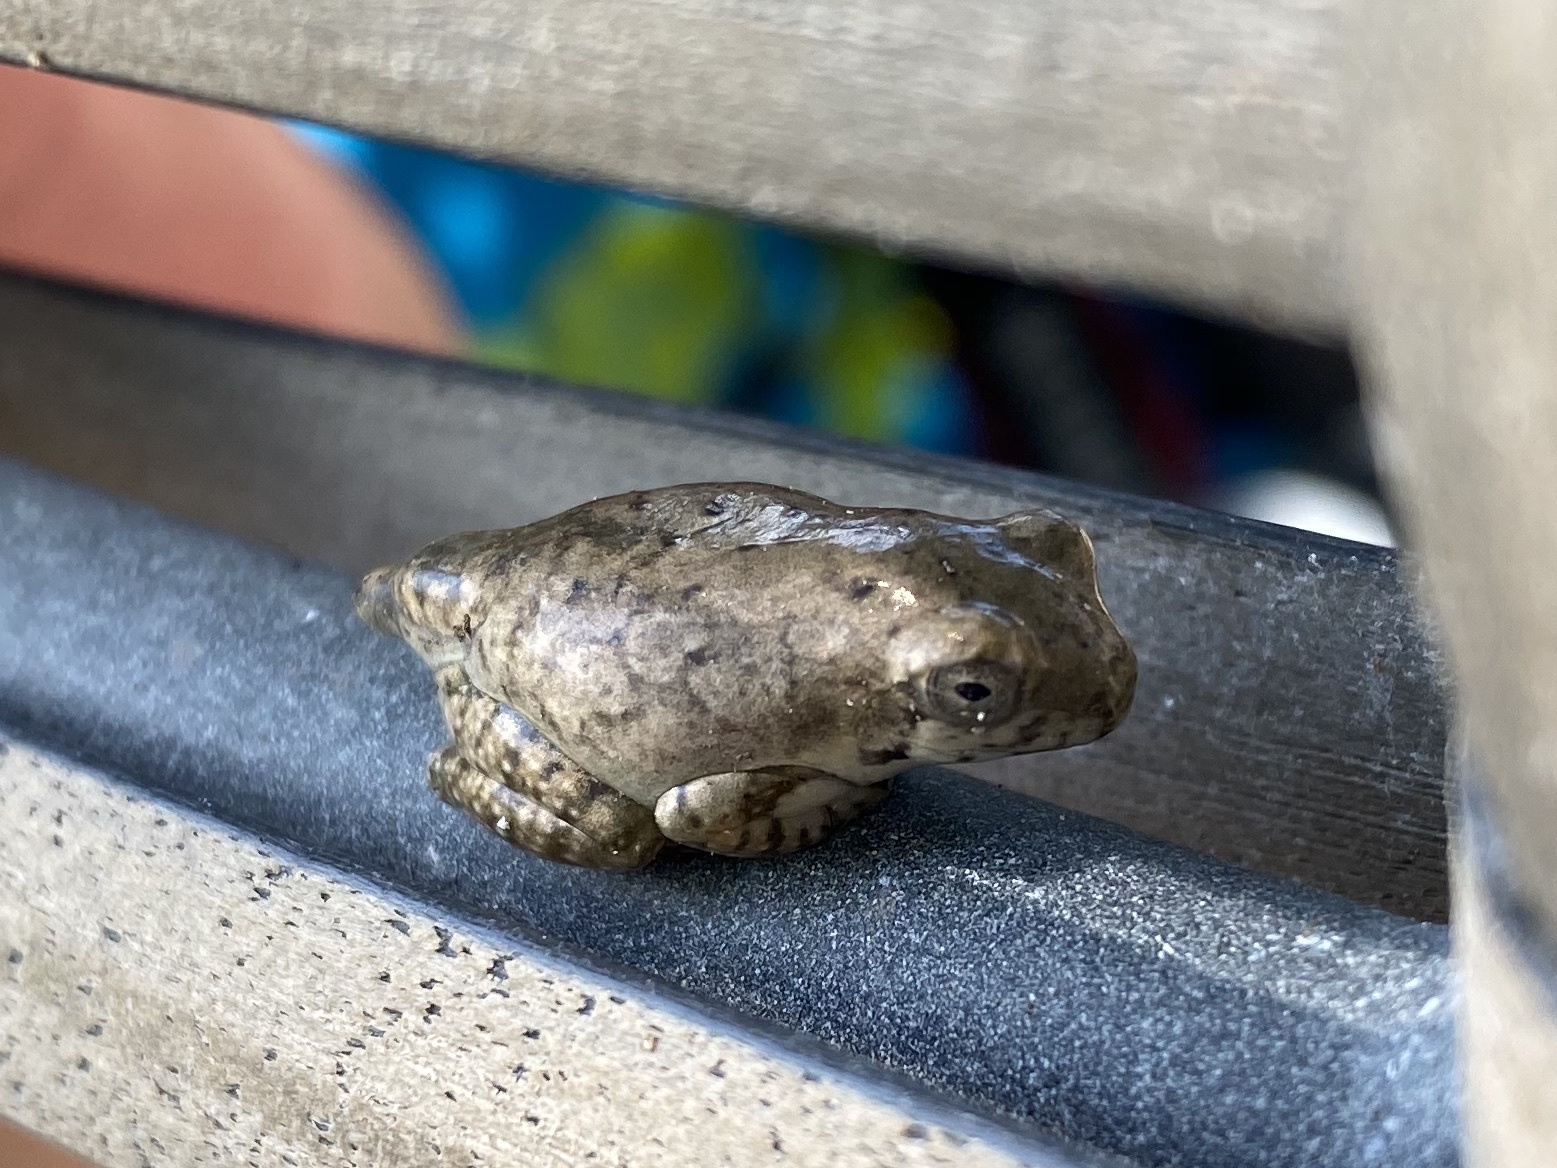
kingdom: Animalia
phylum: Chordata
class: Amphibia
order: Anura
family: Rhacophoridae
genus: Chiromantis
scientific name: Chiromantis xerampelina
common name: African gray treefrog
